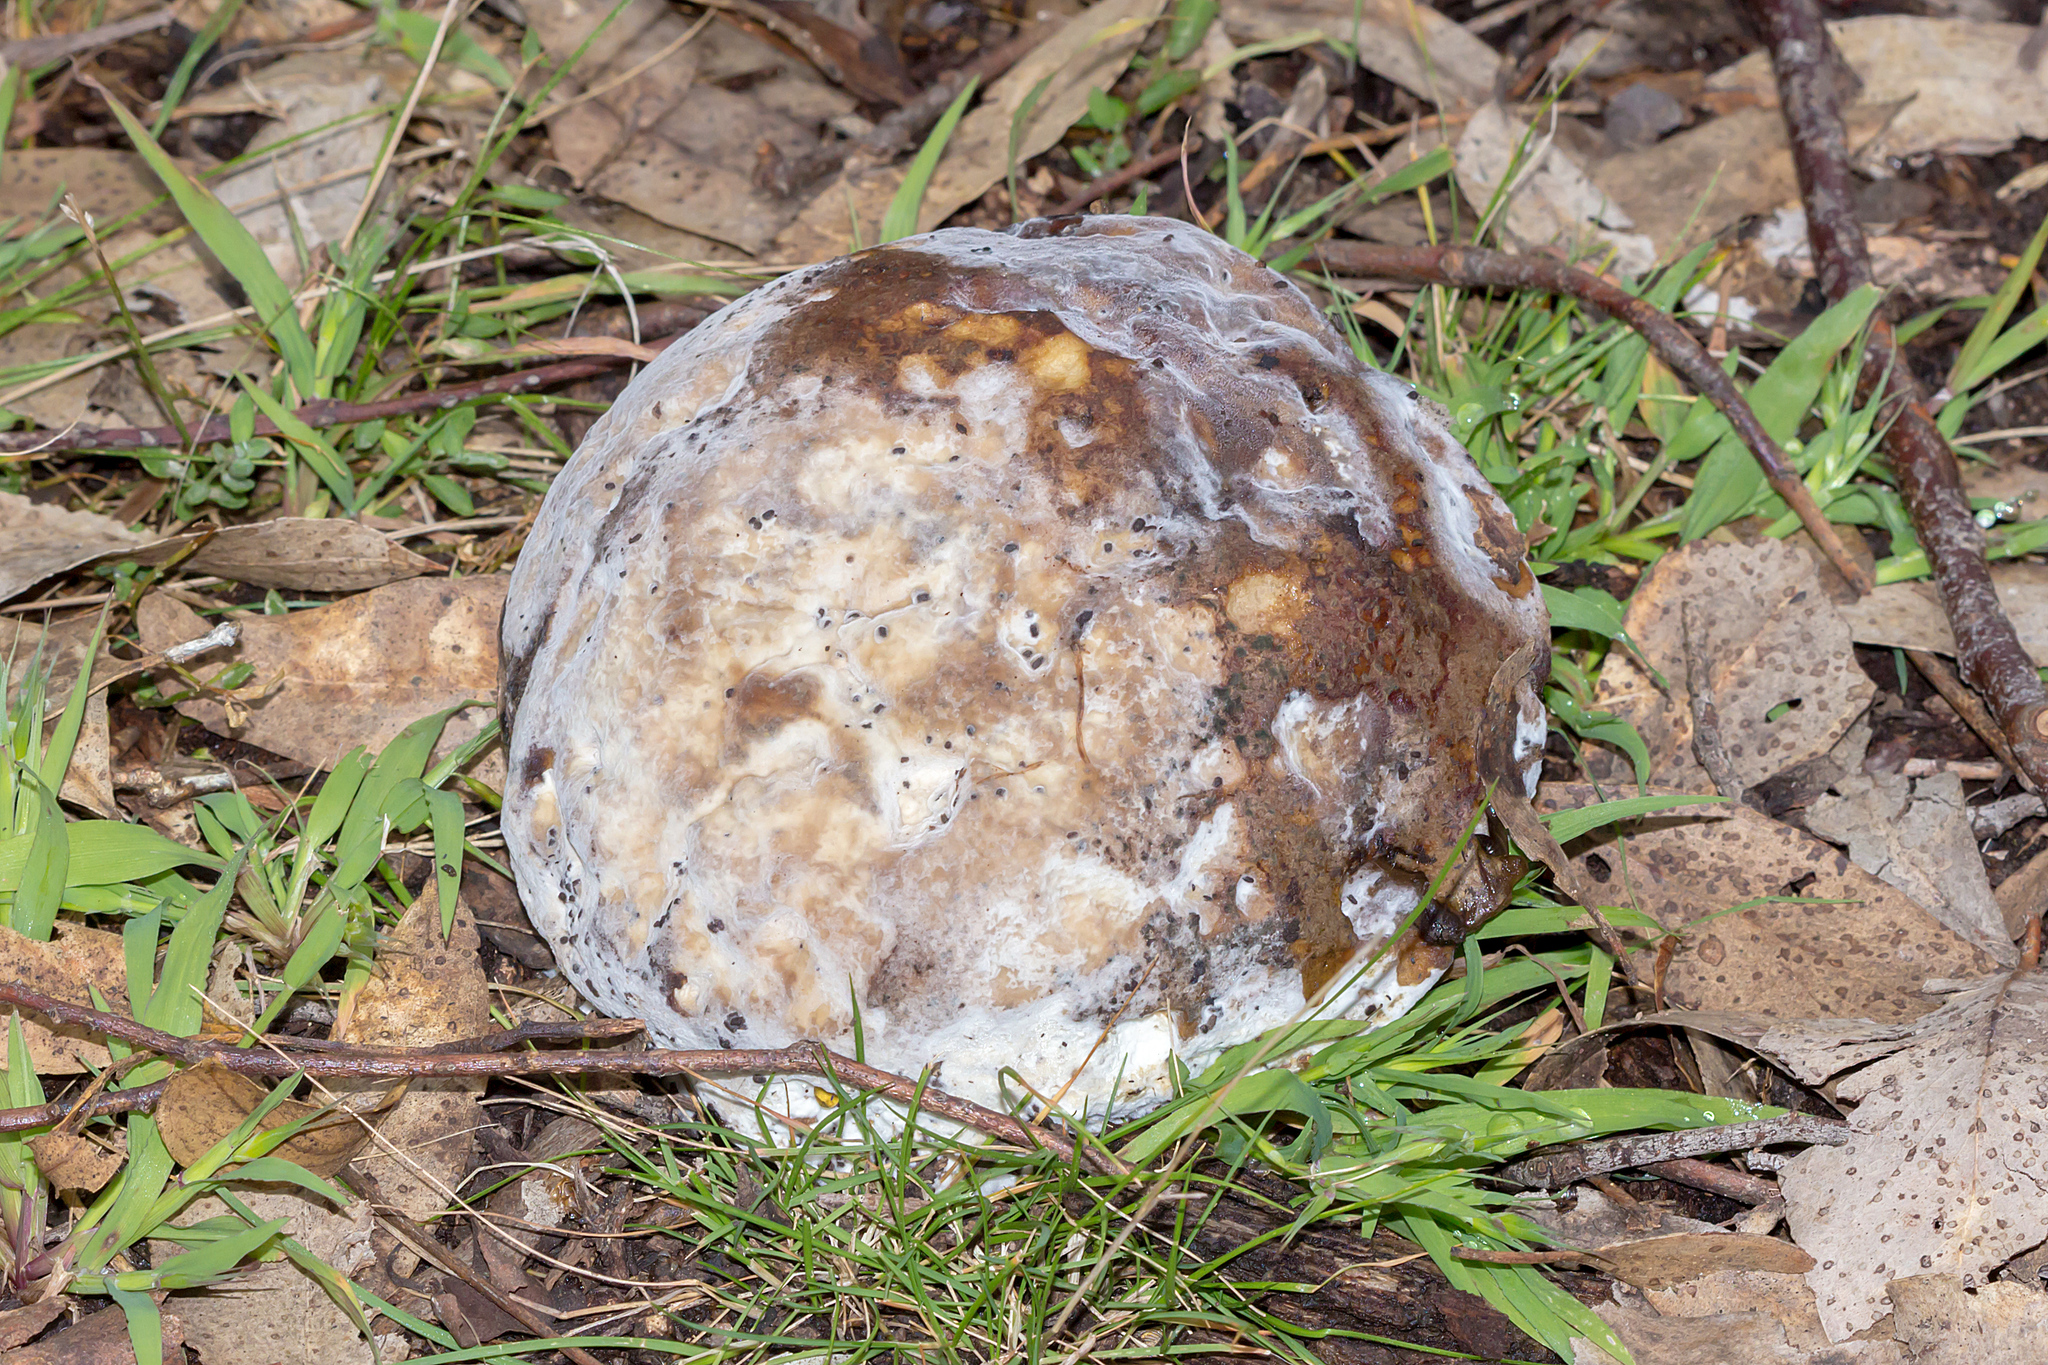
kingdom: Fungi
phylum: Ascomycota
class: Sordariomycetes
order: Hypocreales
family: Hypocreaceae
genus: Hypomyces
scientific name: Hypomyces chrysospermus
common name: Bolete mould
